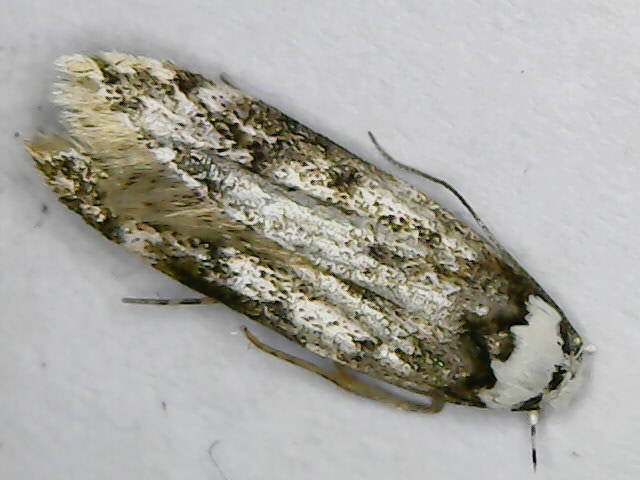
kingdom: Animalia
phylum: Arthropoda
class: Insecta
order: Lepidoptera
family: Oecophoridae
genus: Endrosis
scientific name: Endrosis sarcitrella
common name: White-shouldered house moth
